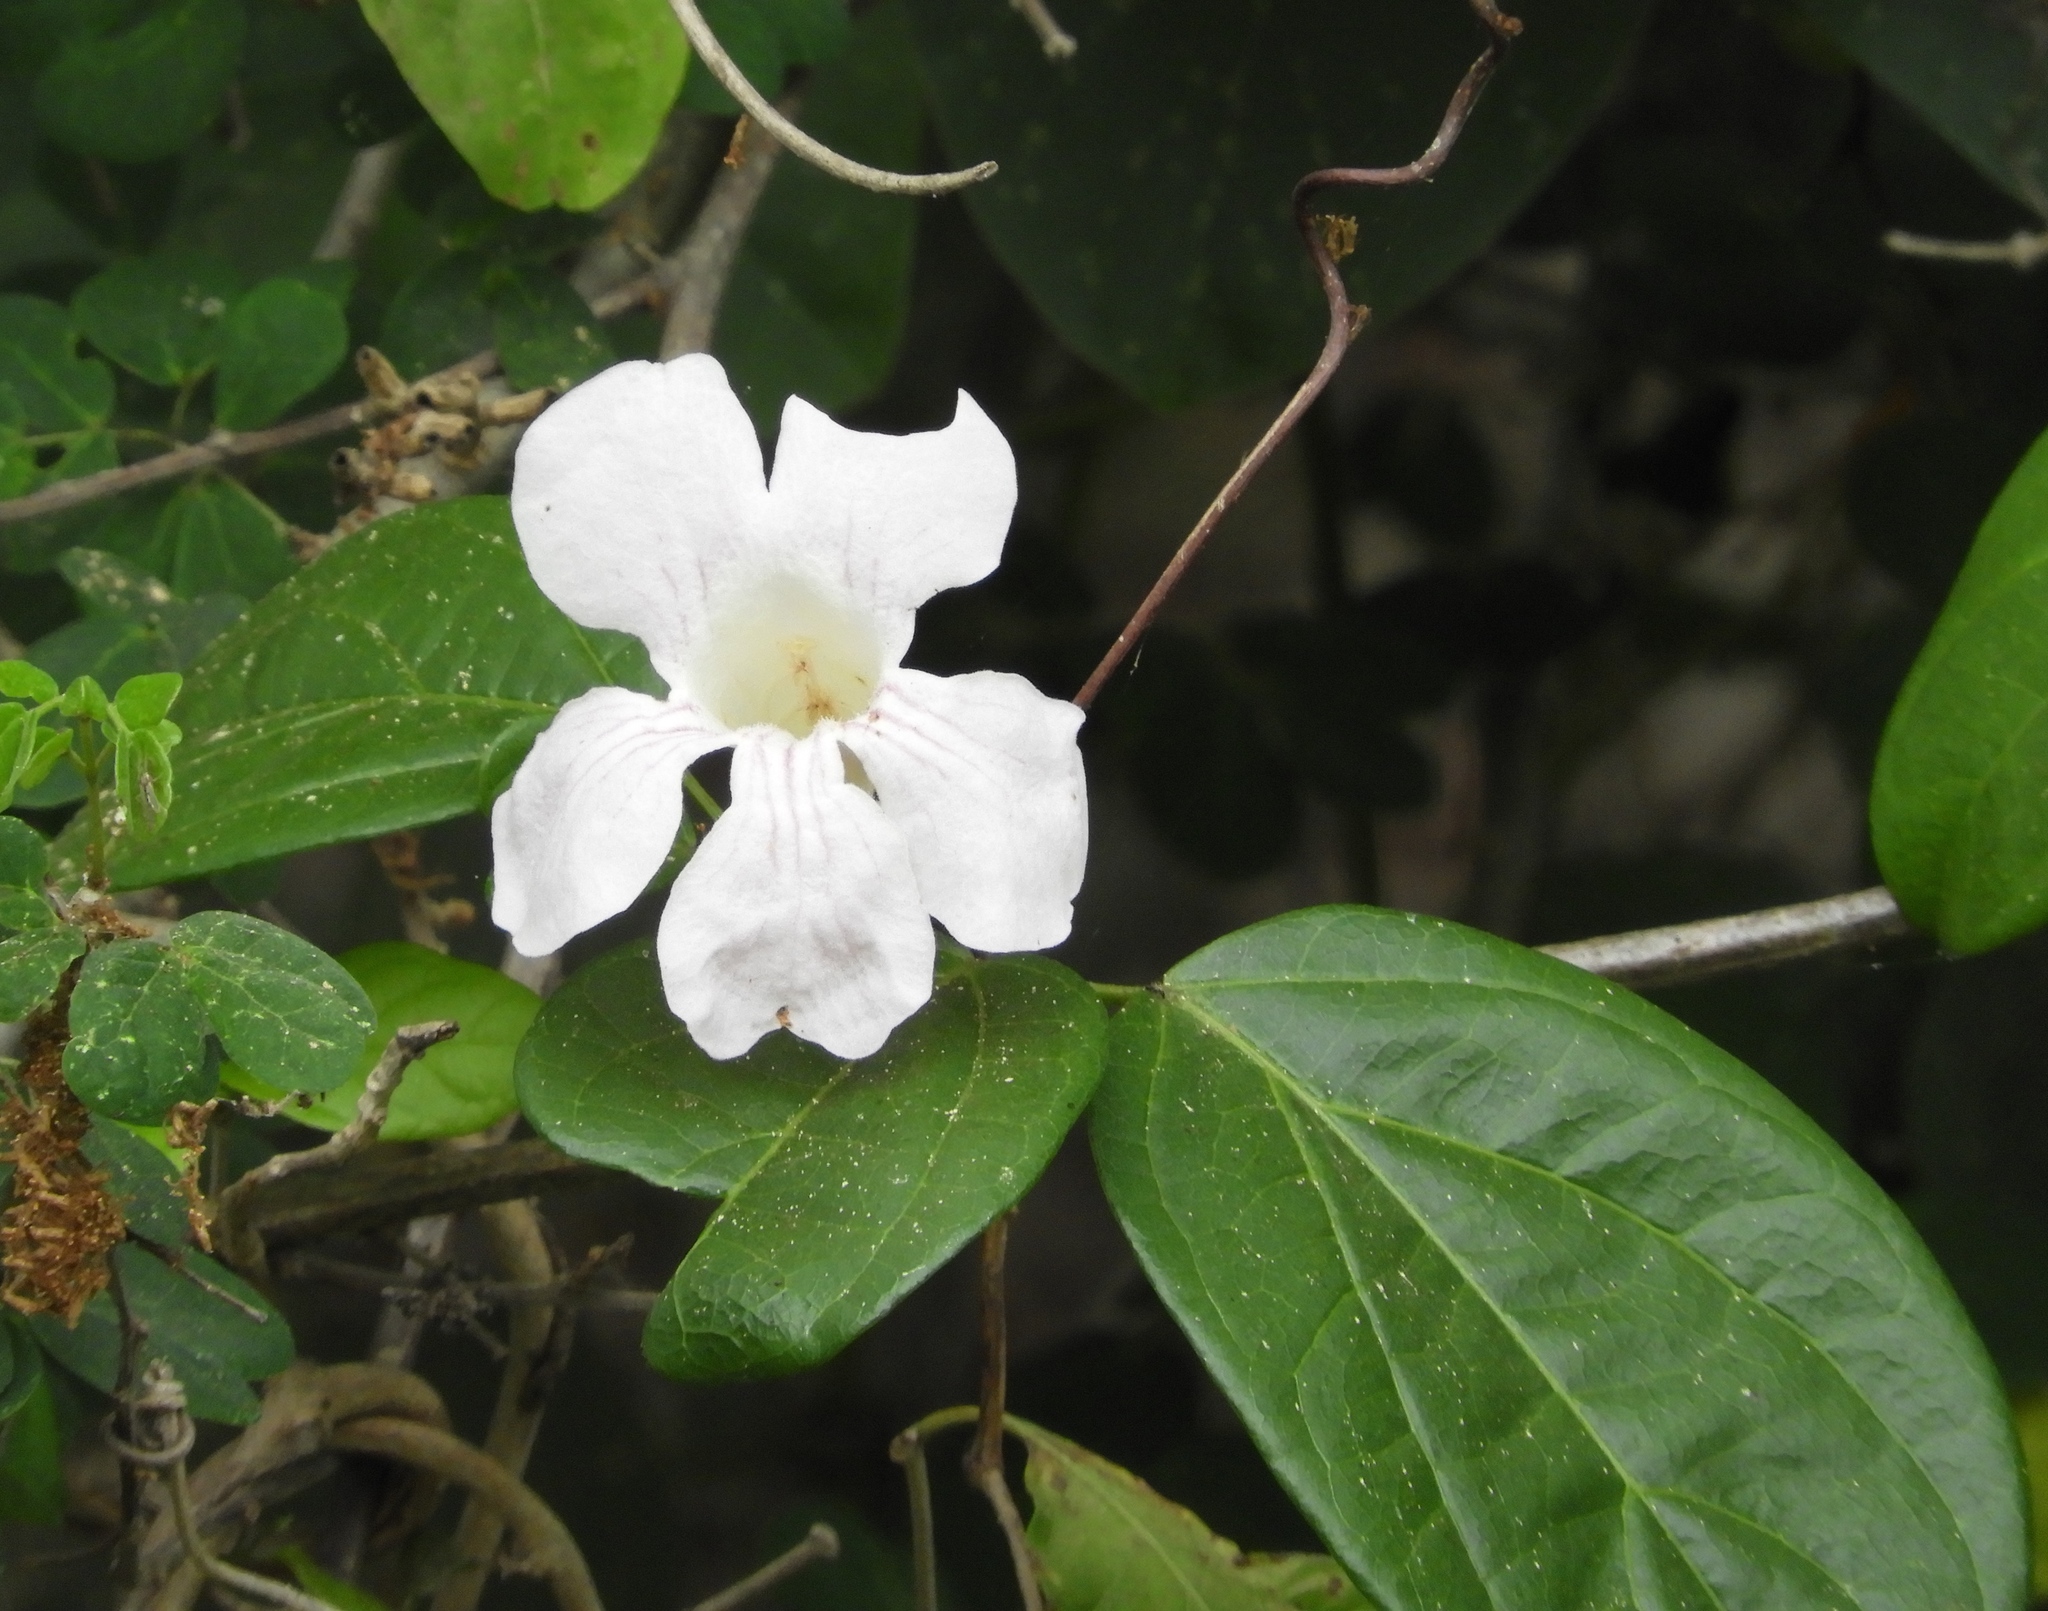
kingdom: Plantae
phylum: Tracheophyta
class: Magnoliopsida
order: Lamiales
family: Bignoniaceae
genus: Bignonia
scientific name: Bignonia potosina
